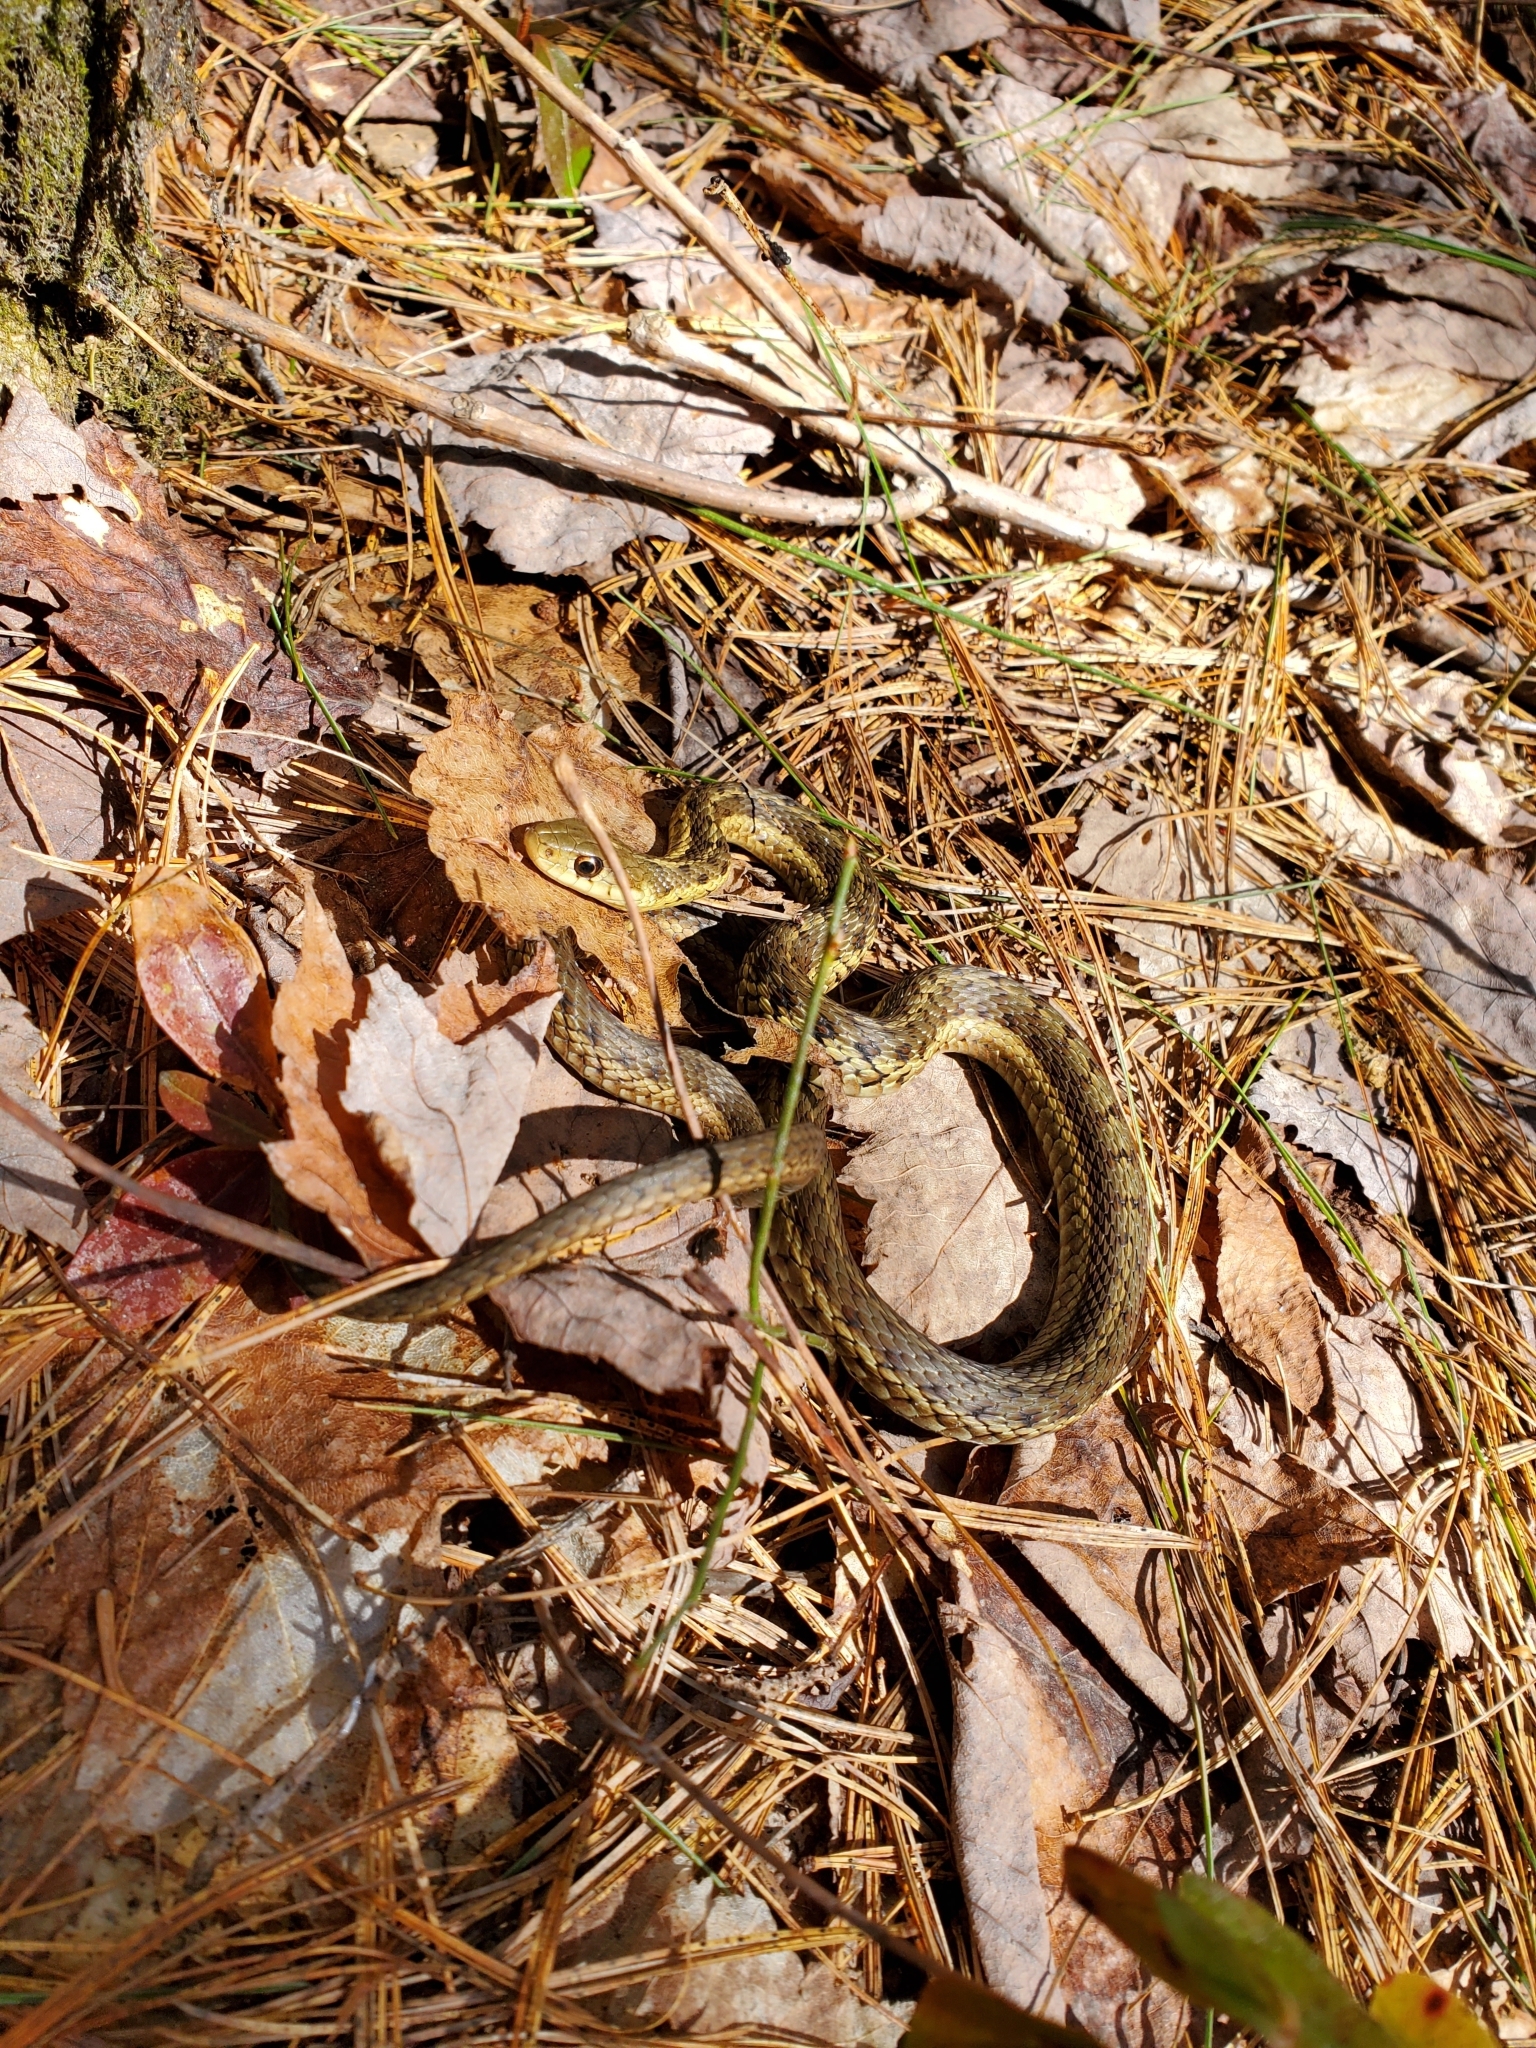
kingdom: Animalia
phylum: Chordata
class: Squamata
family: Colubridae
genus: Thamnophis
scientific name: Thamnophis sirtalis
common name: Common garter snake
